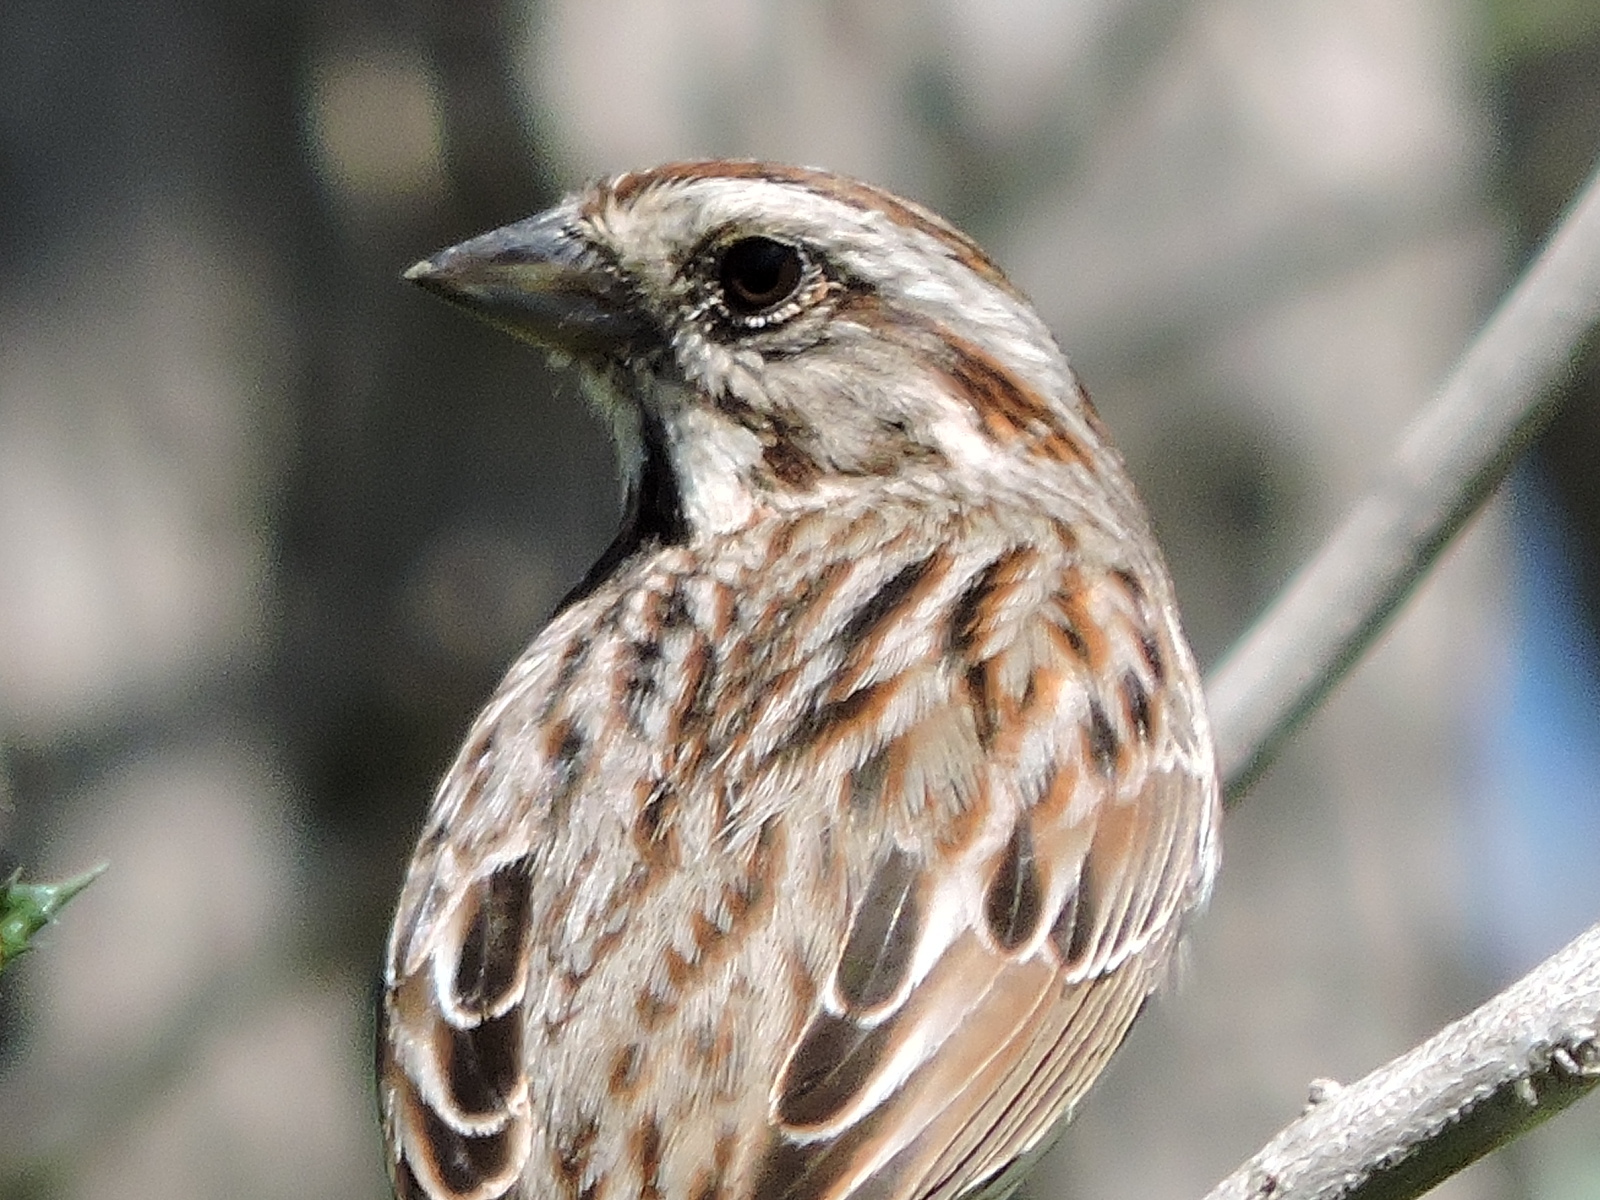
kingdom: Animalia
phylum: Chordata
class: Aves
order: Passeriformes
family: Passerellidae
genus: Melospiza
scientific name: Melospiza melodia
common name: Song sparrow
